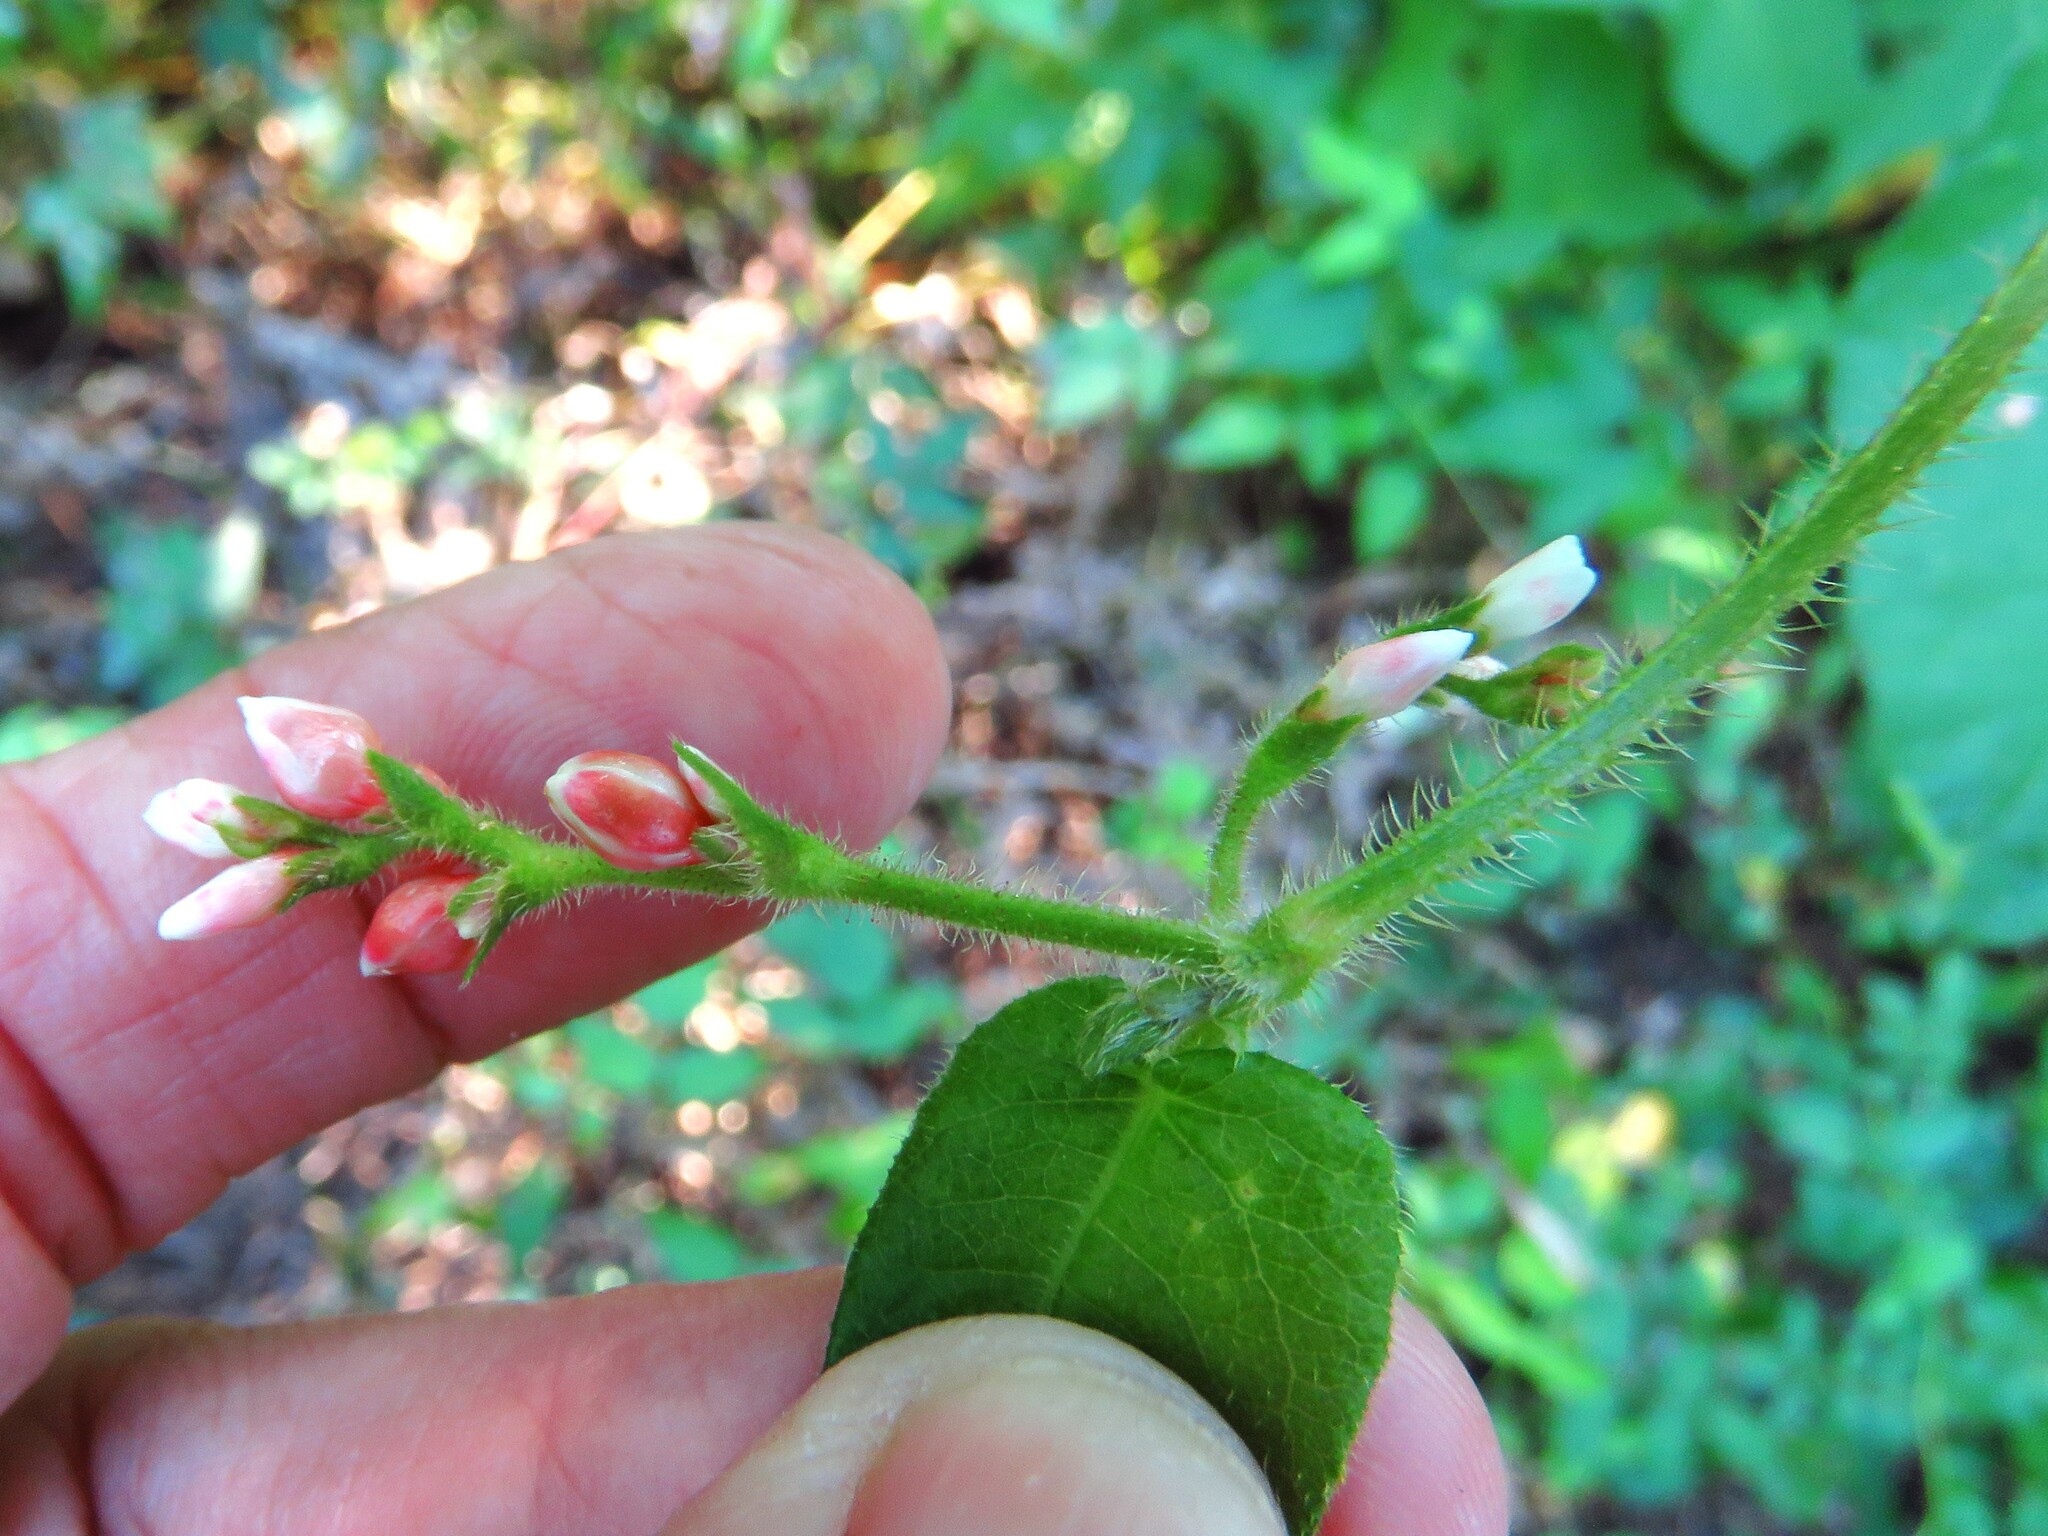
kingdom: Plantae
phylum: Tracheophyta
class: Magnoliopsida
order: Caryophyllales
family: Polygonaceae
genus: Persicaria
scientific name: Persicaria arifolia
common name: Halberd-leaved tear-thumb
